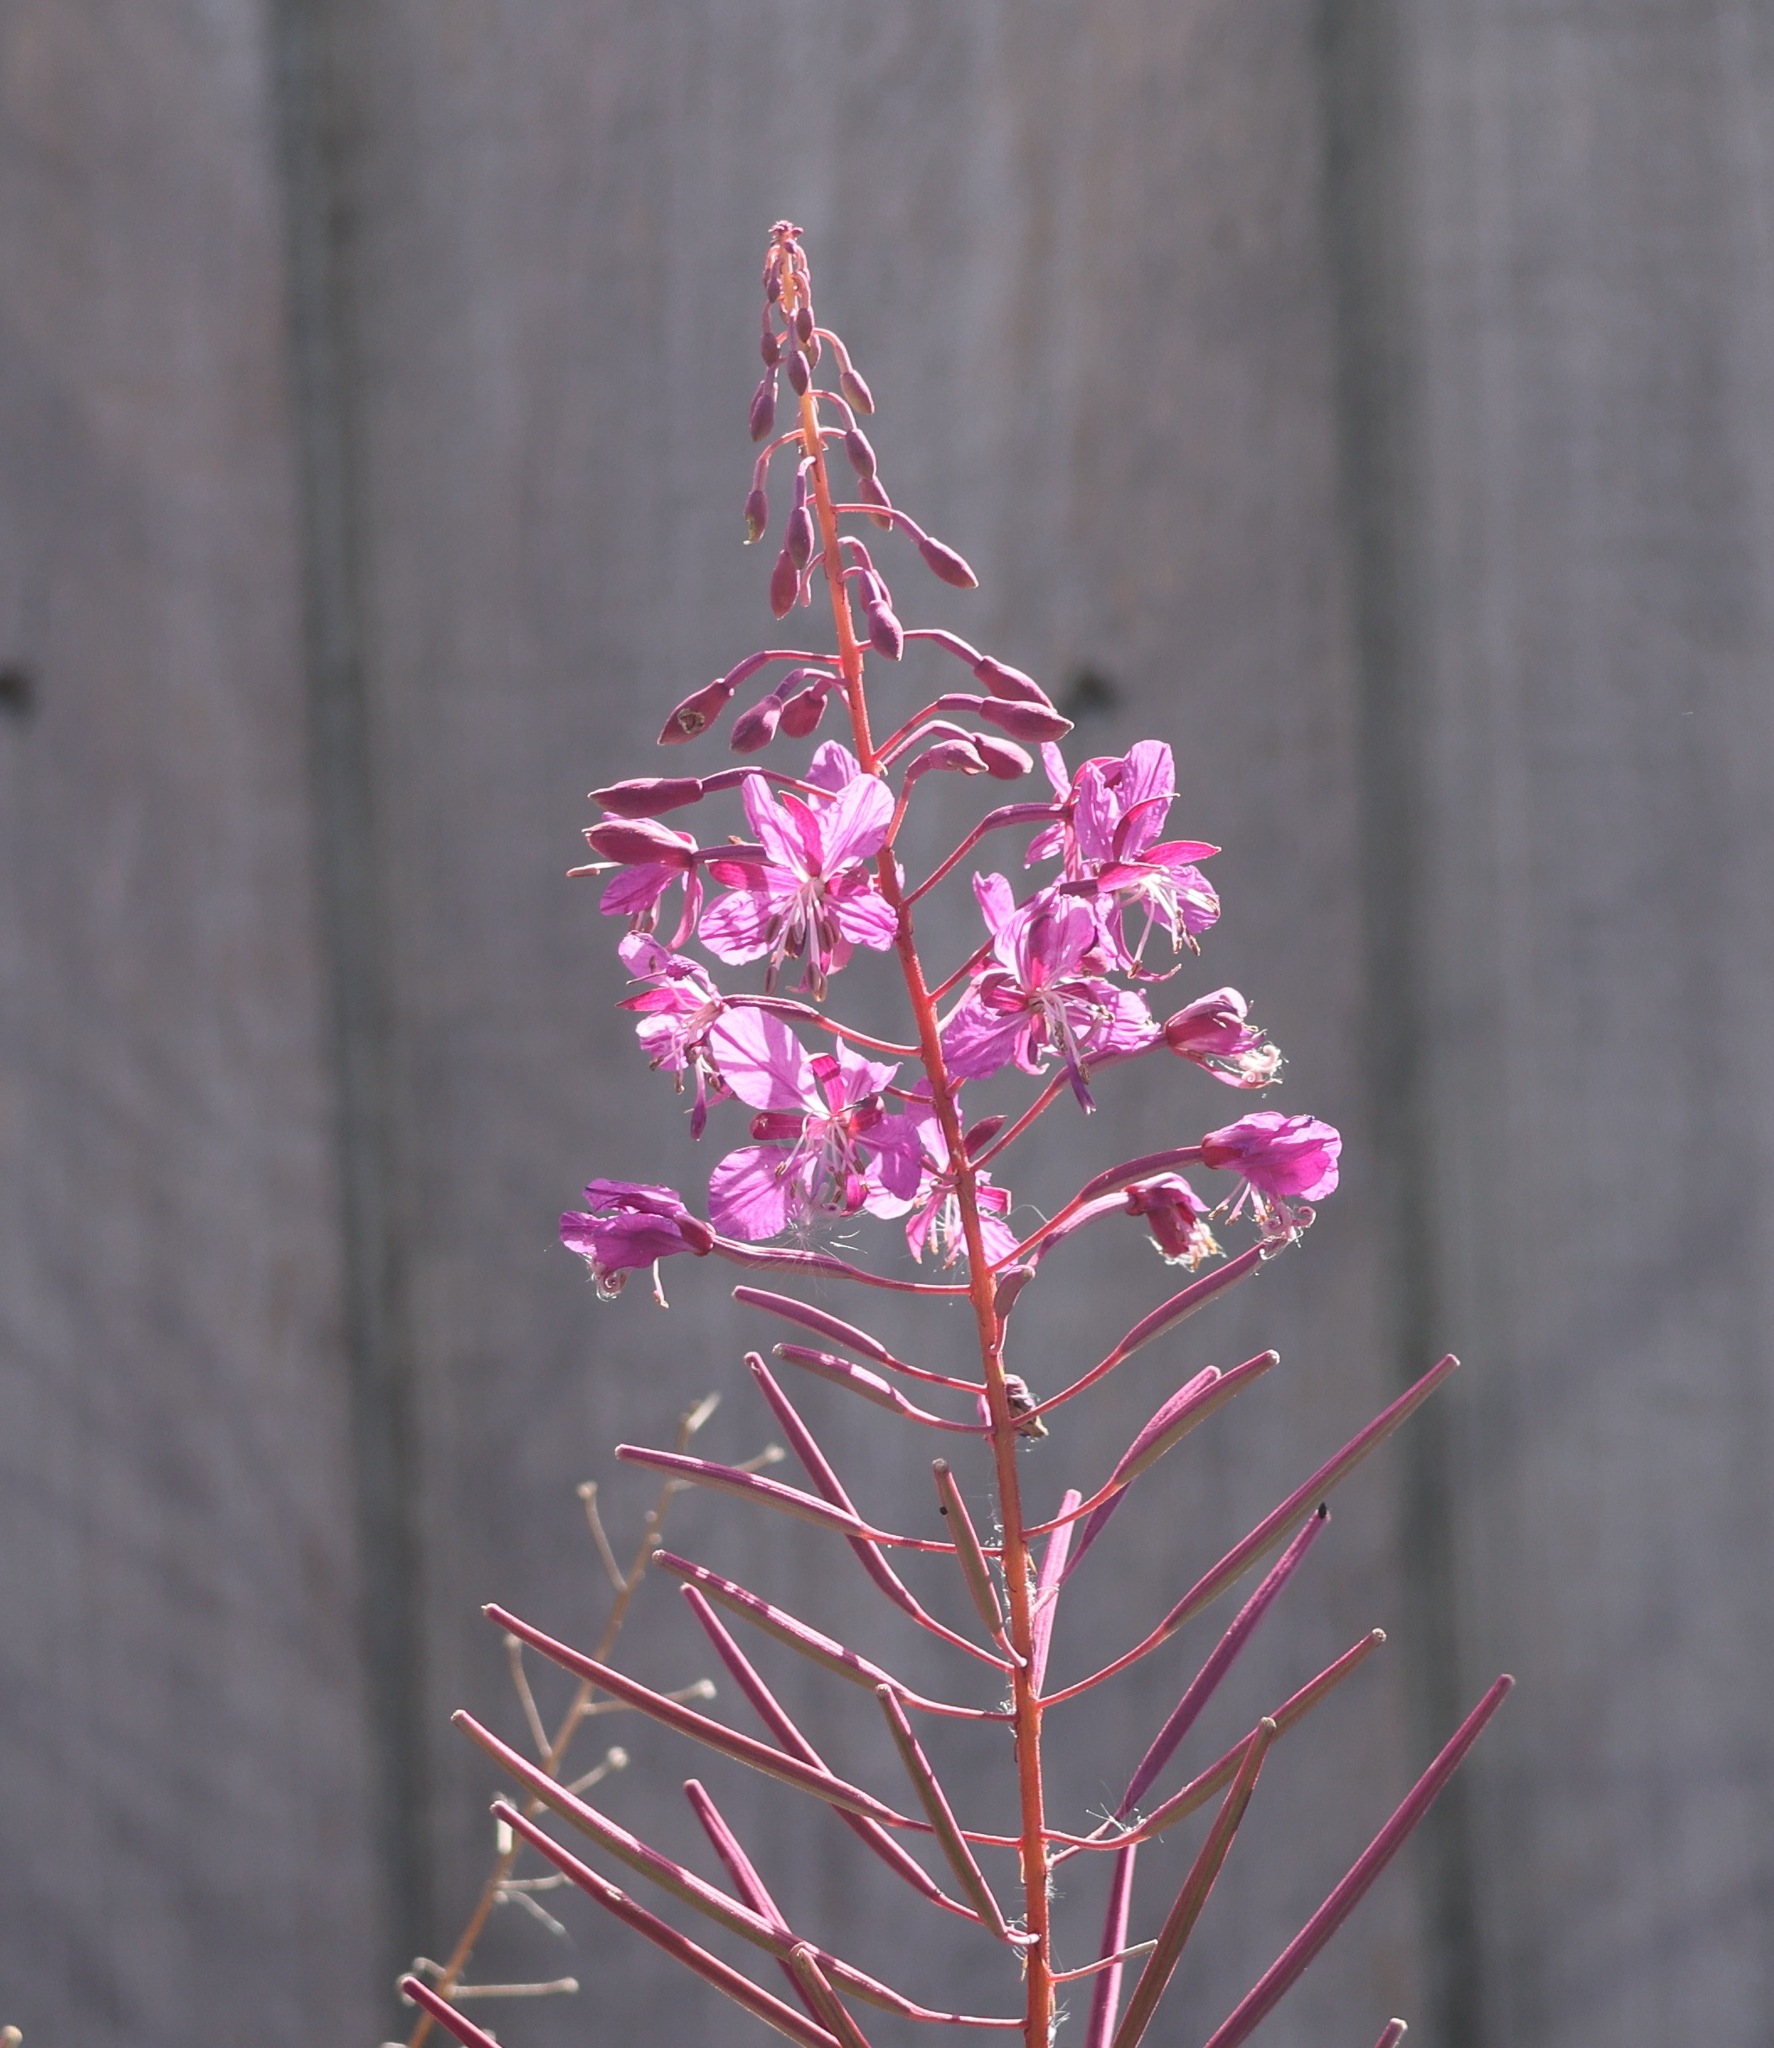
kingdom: Plantae
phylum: Tracheophyta
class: Magnoliopsida
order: Myrtales
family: Onagraceae
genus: Chamaenerion
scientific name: Chamaenerion angustifolium
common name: Fireweed
